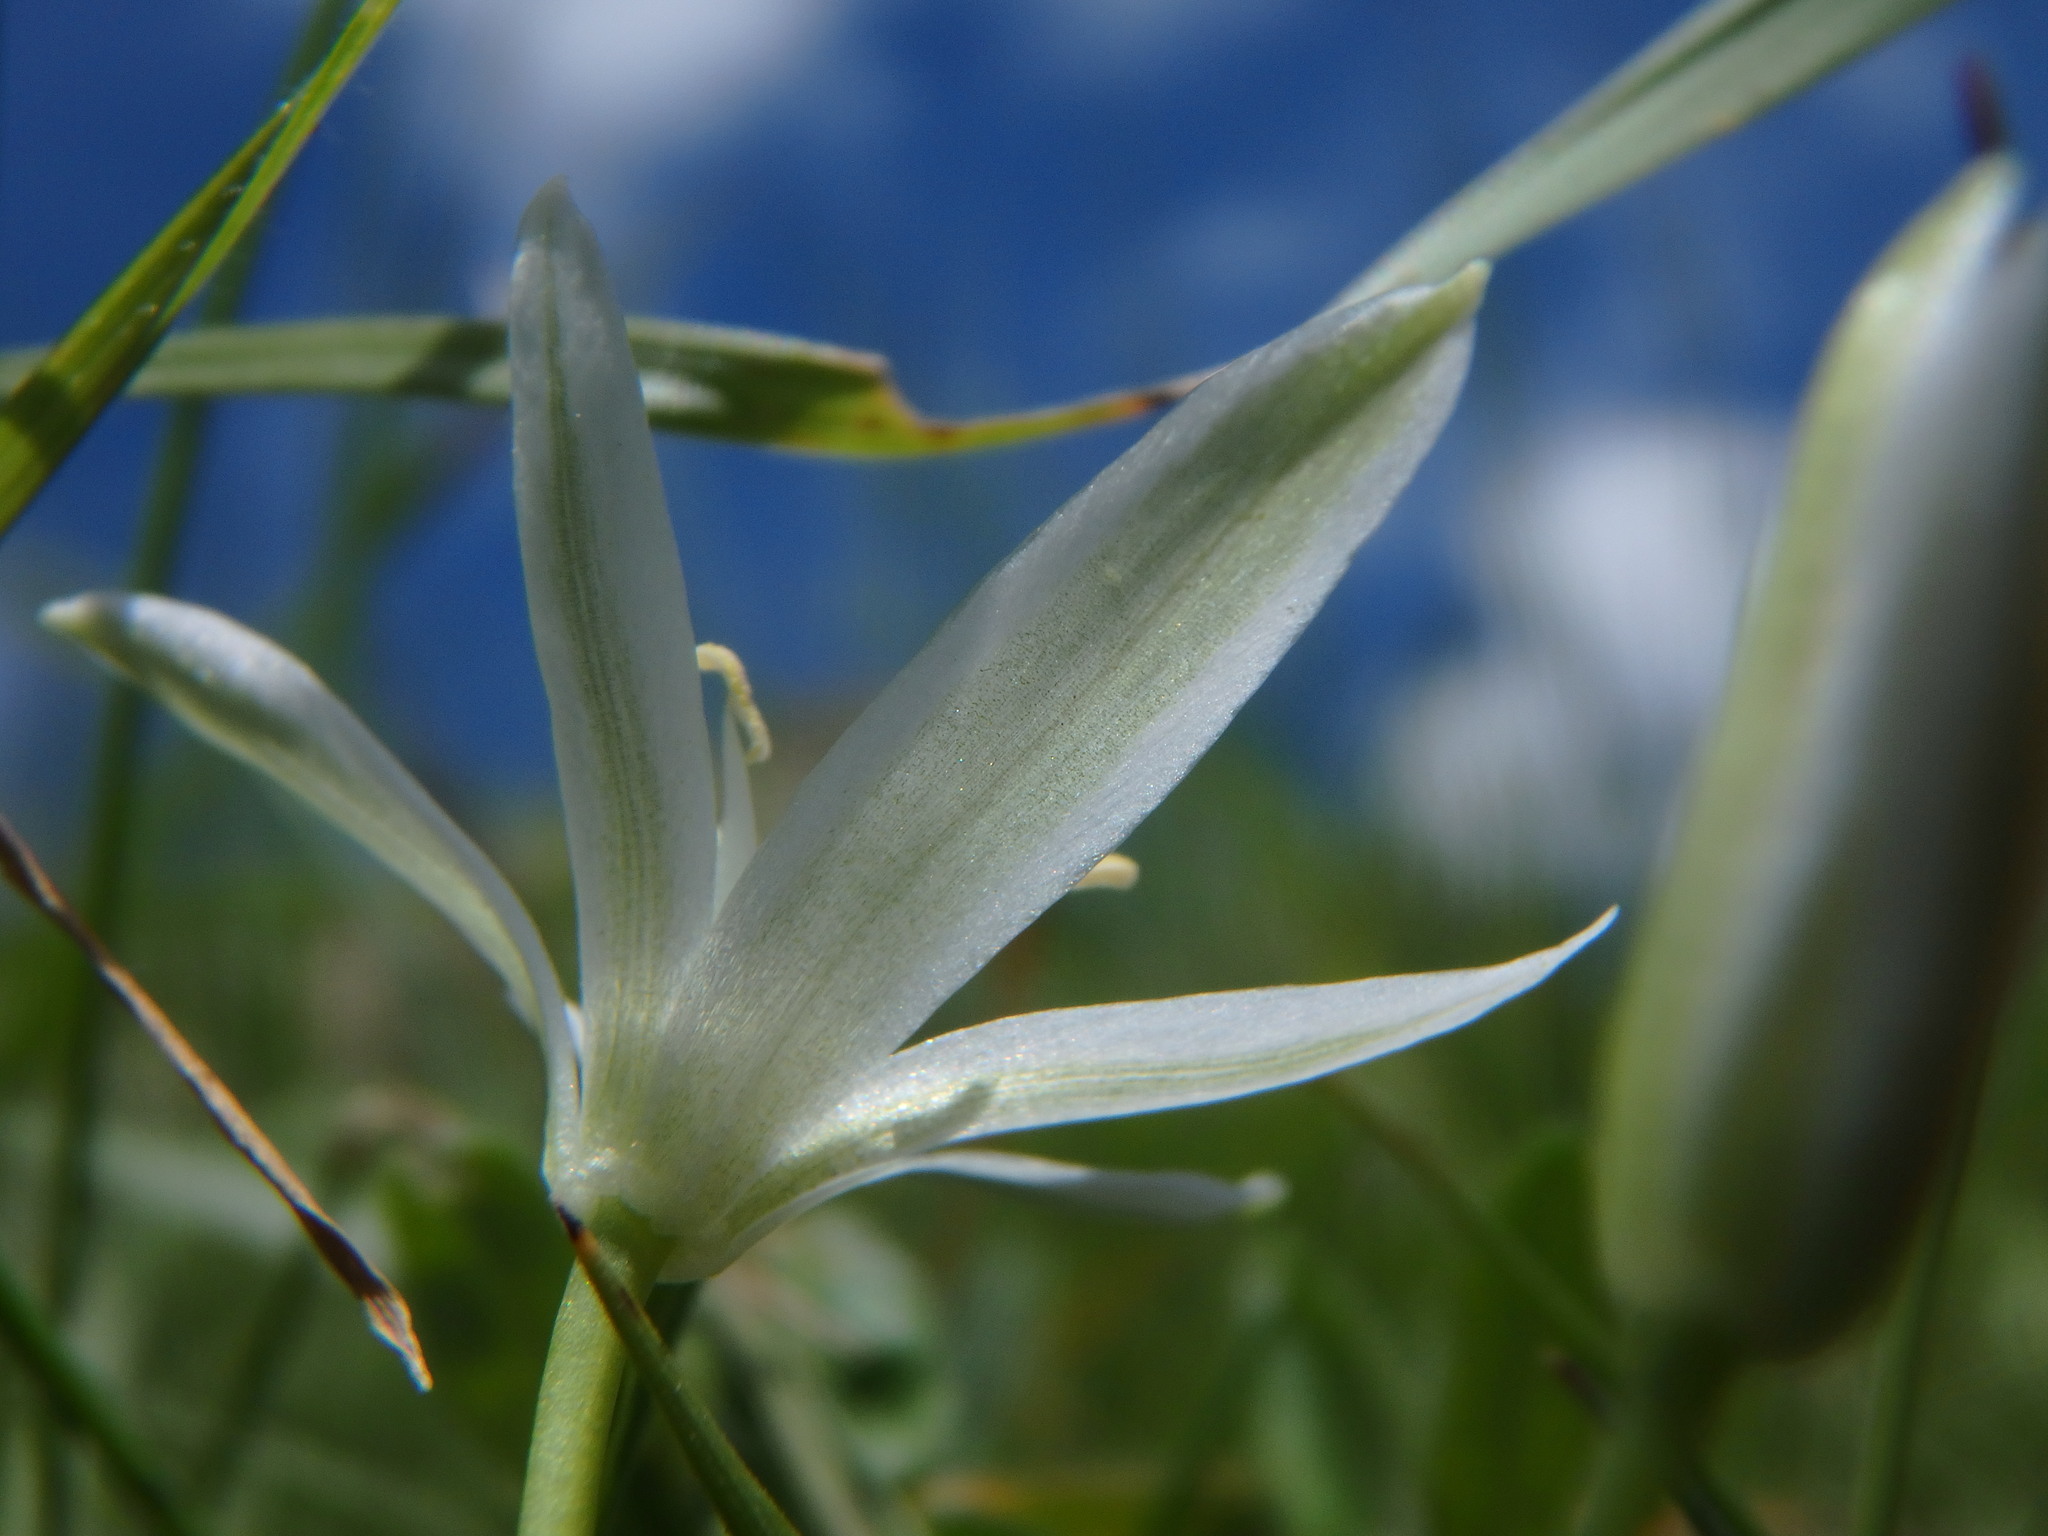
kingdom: Plantae
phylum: Tracheophyta
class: Liliopsida
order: Asparagales
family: Asparagaceae
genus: Ornithogalum
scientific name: Ornithogalum umbellatum
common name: Garden star-of-bethlehem
